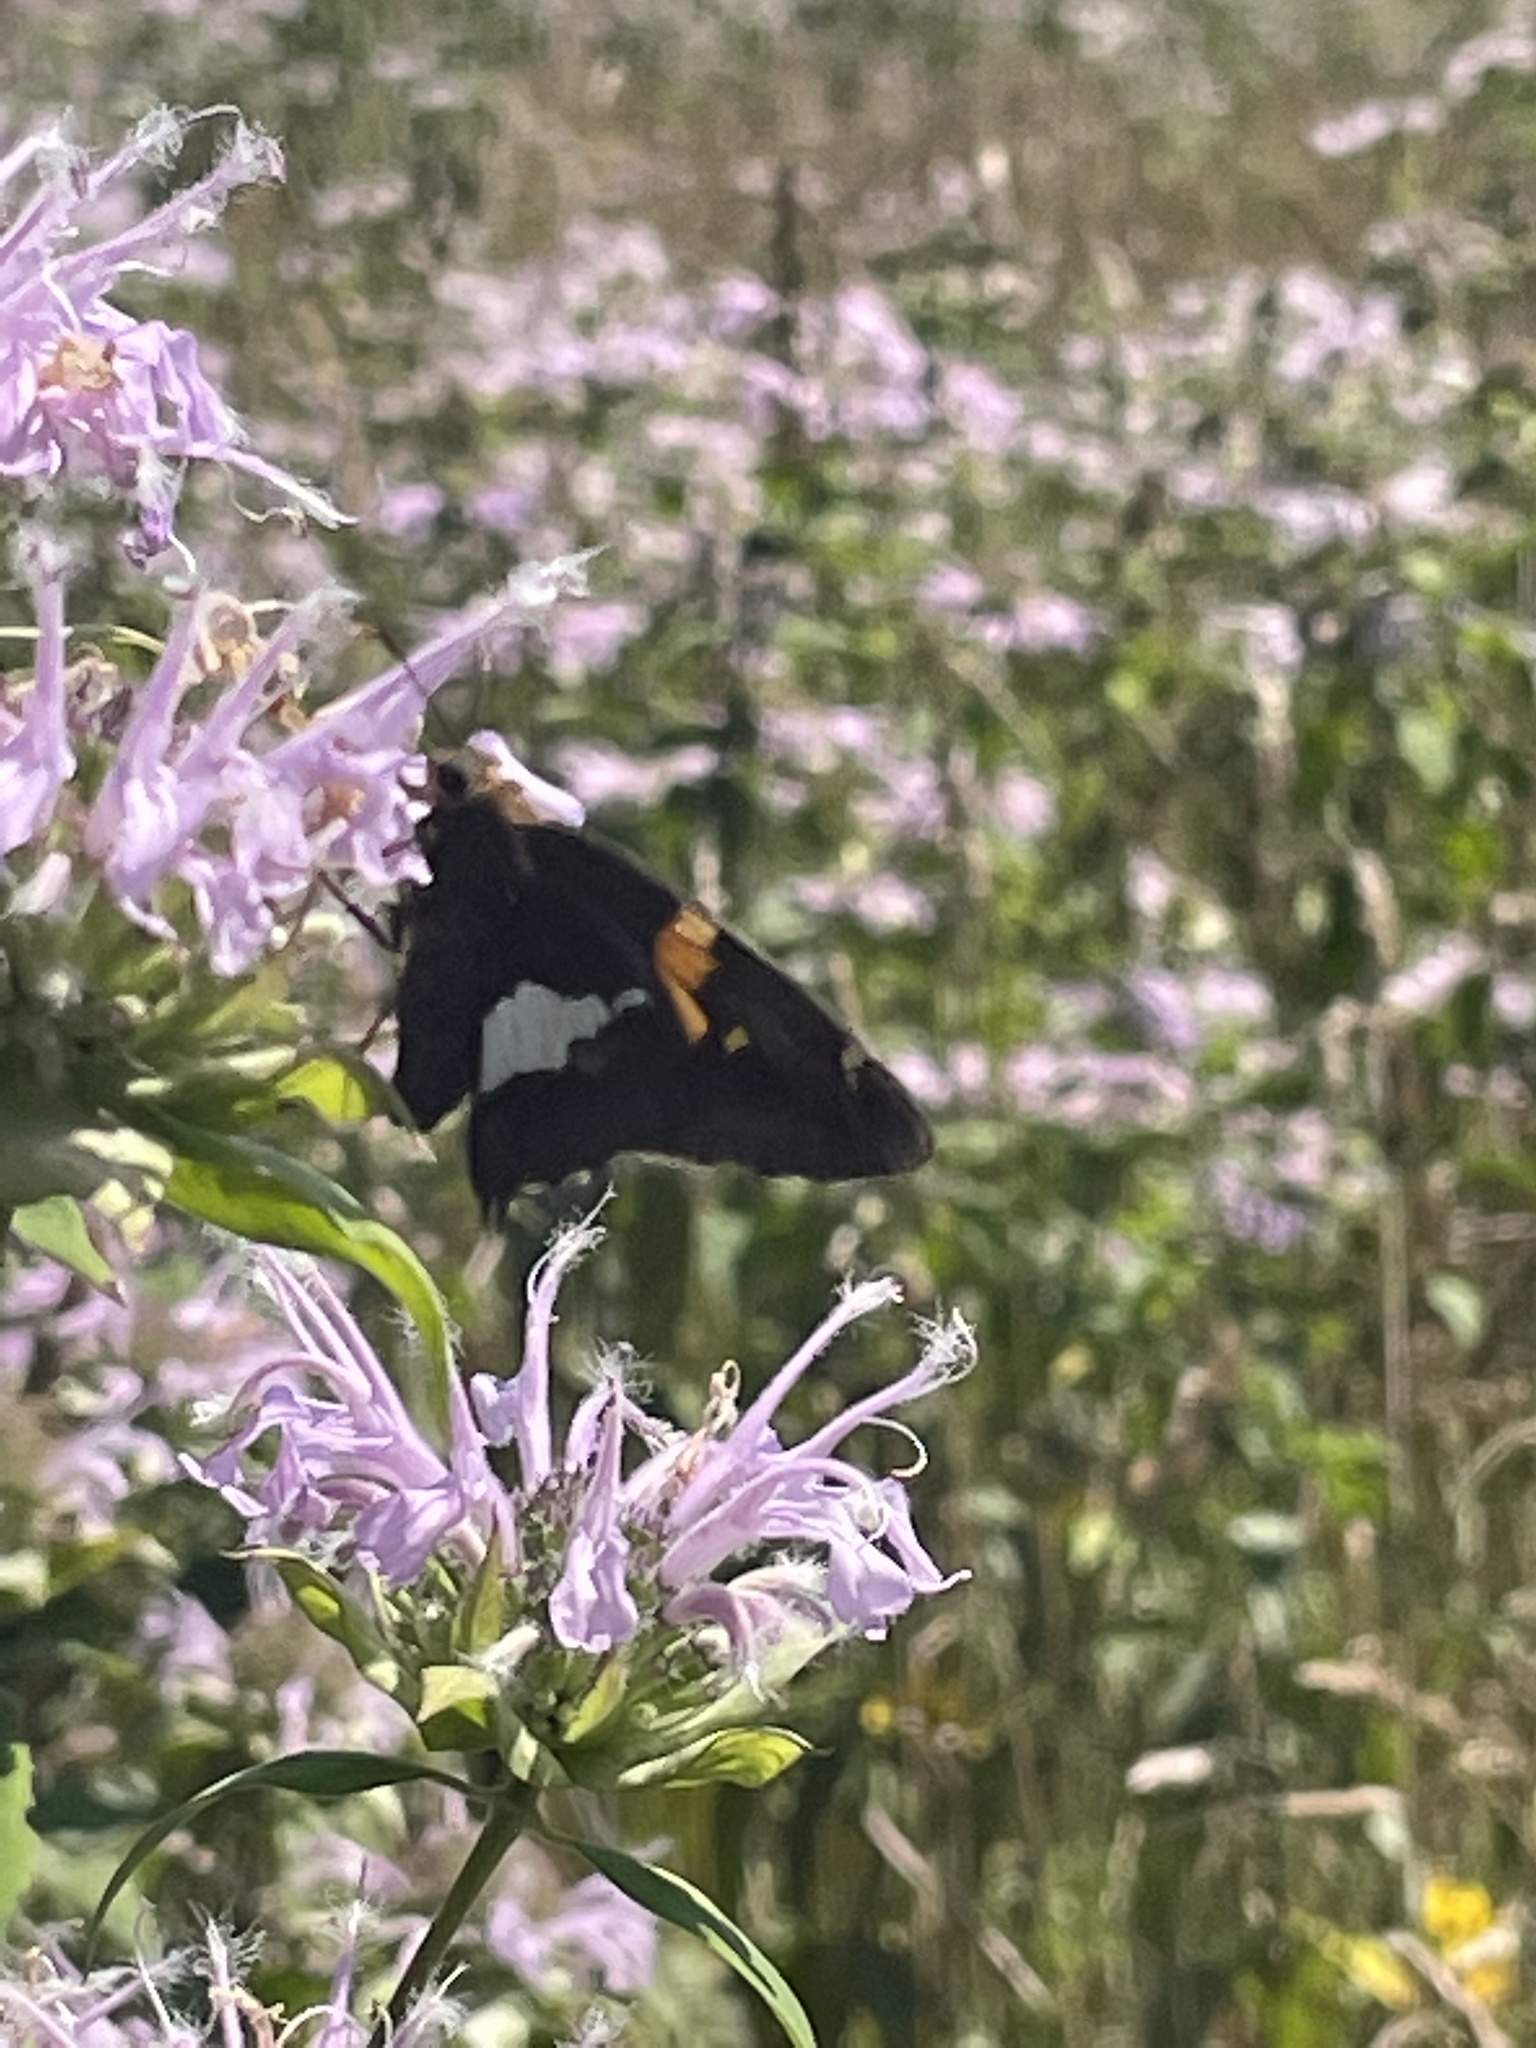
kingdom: Animalia
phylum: Arthropoda
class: Insecta
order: Lepidoptera
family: Hesperiidae
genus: Epargyreus
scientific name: Epargyreus clarus
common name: Silver-spotted skipper
